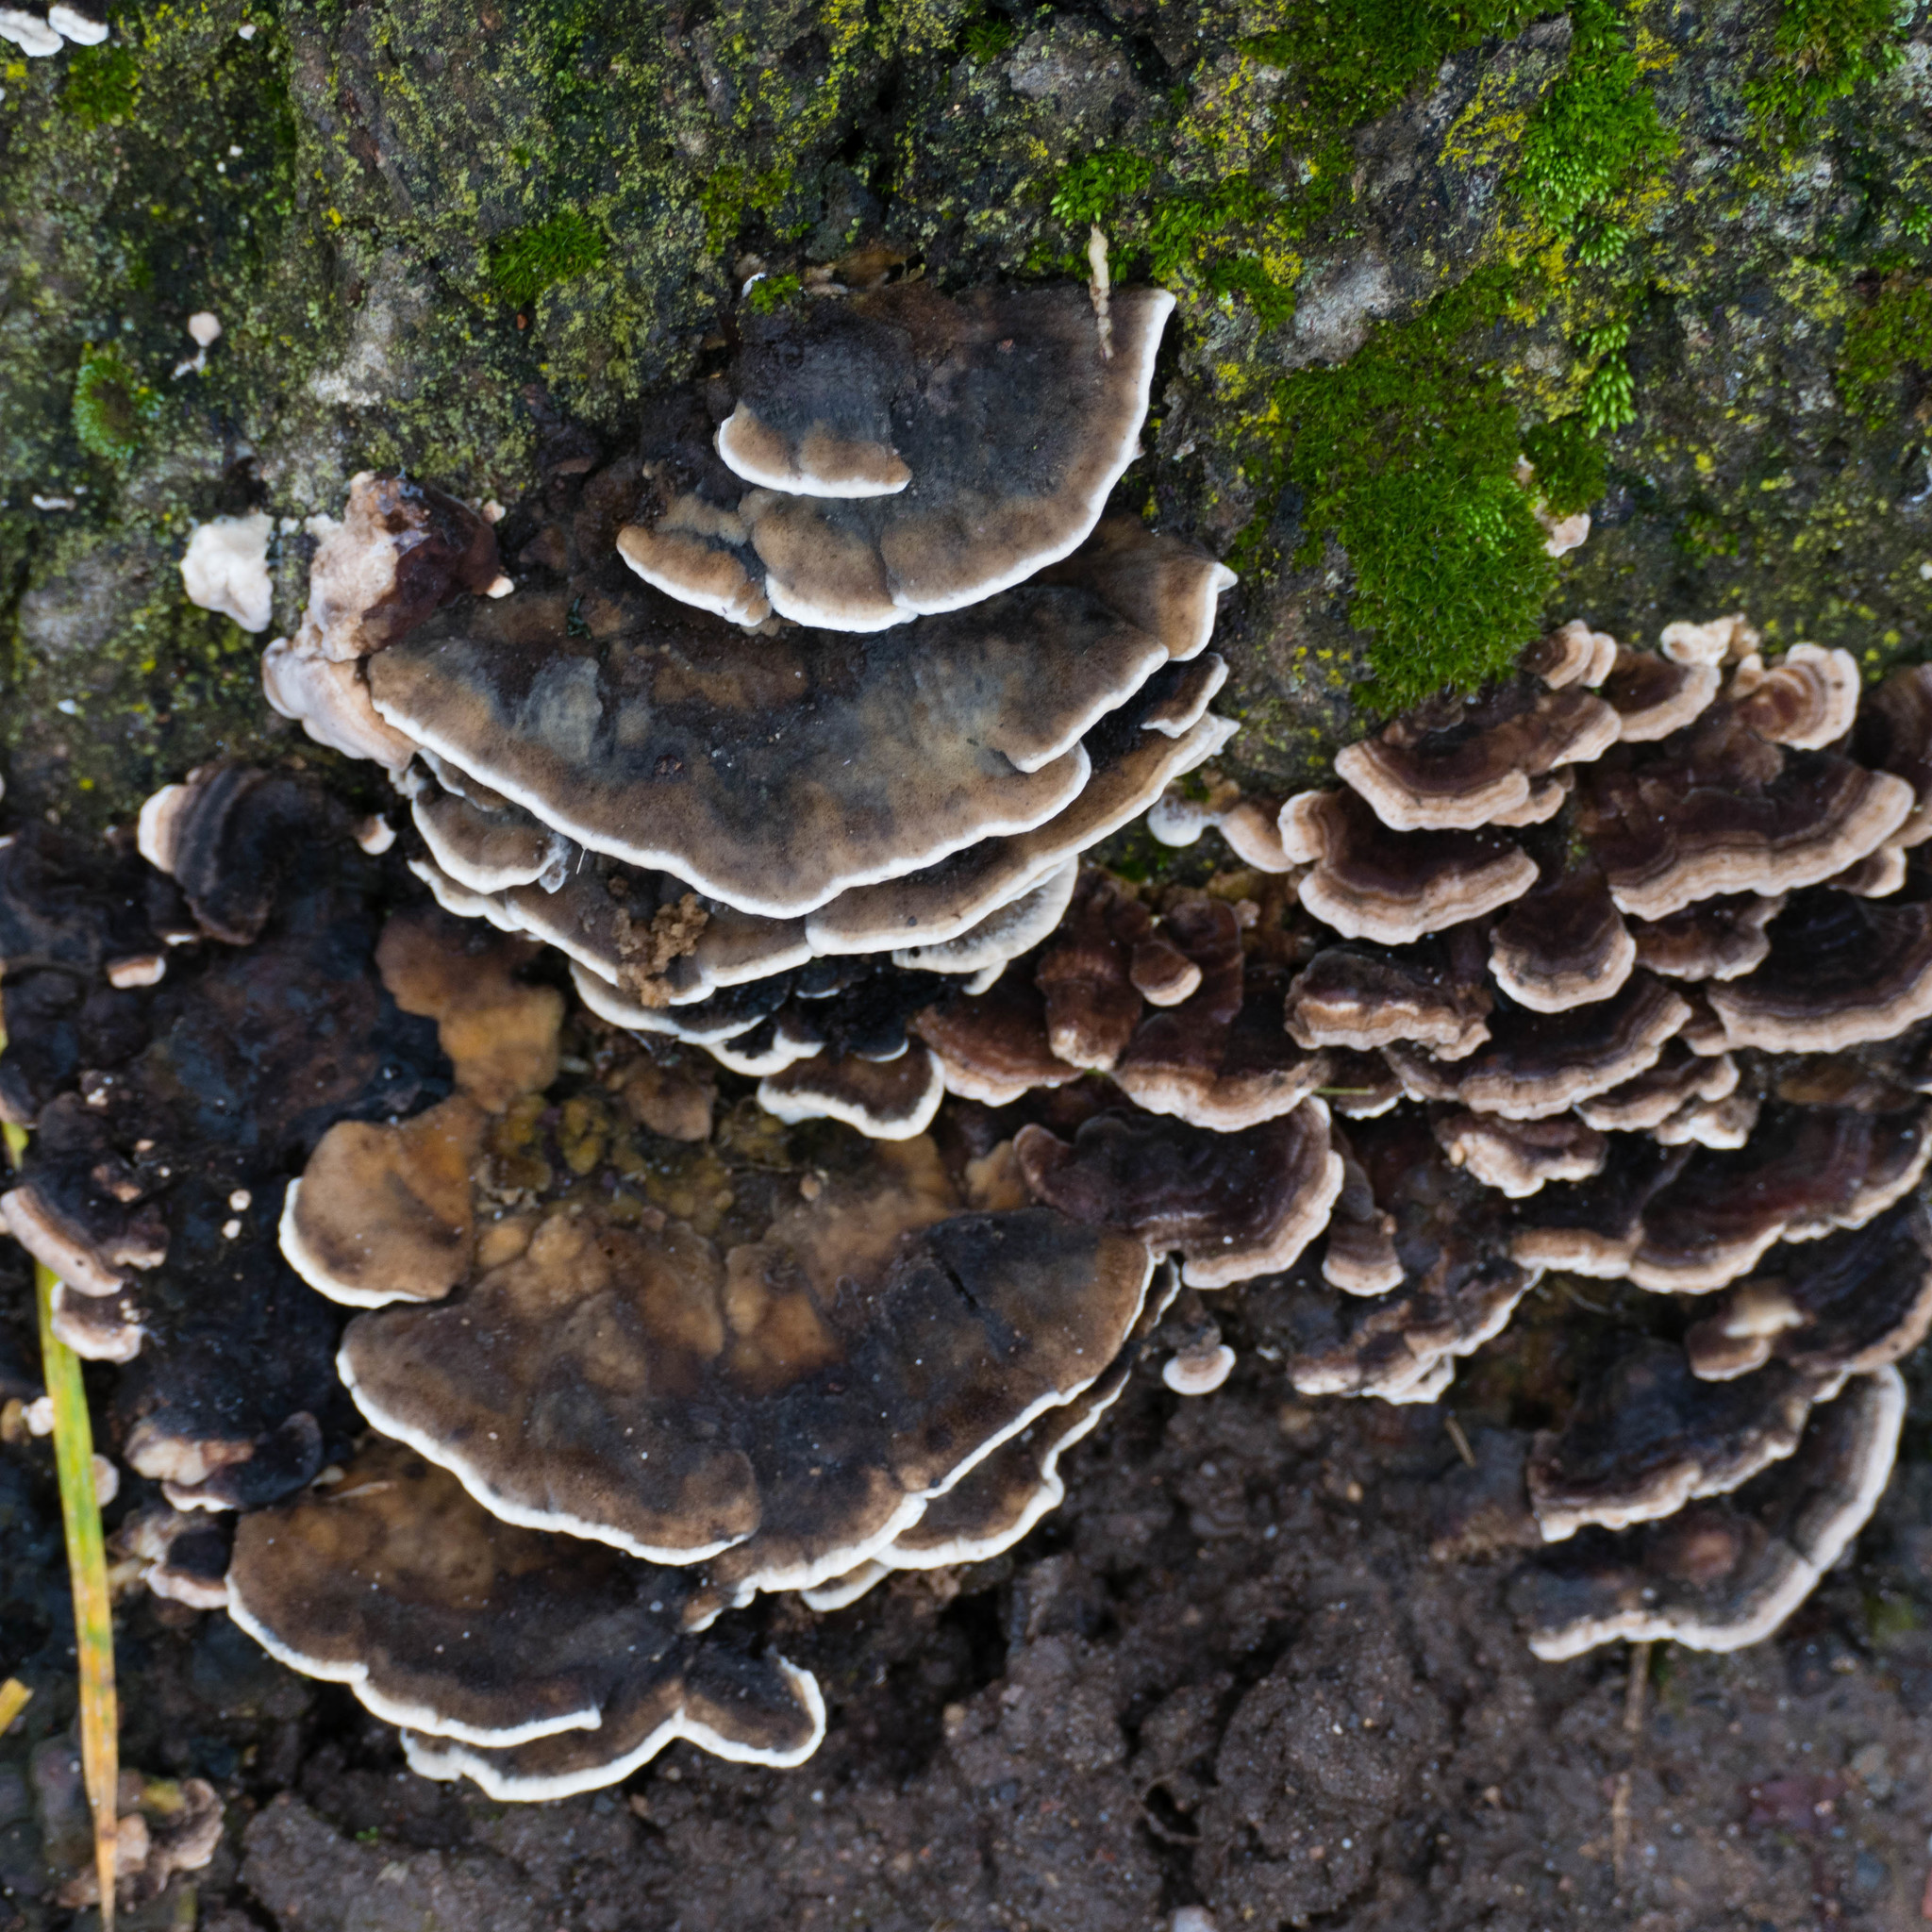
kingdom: Fungi
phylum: Basidiomycota
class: Agaricomycetes
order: Polyporales
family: Phanerochaetaceae
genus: Bjerkandera
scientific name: Bjerkandera adusta
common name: Smoky bracket
